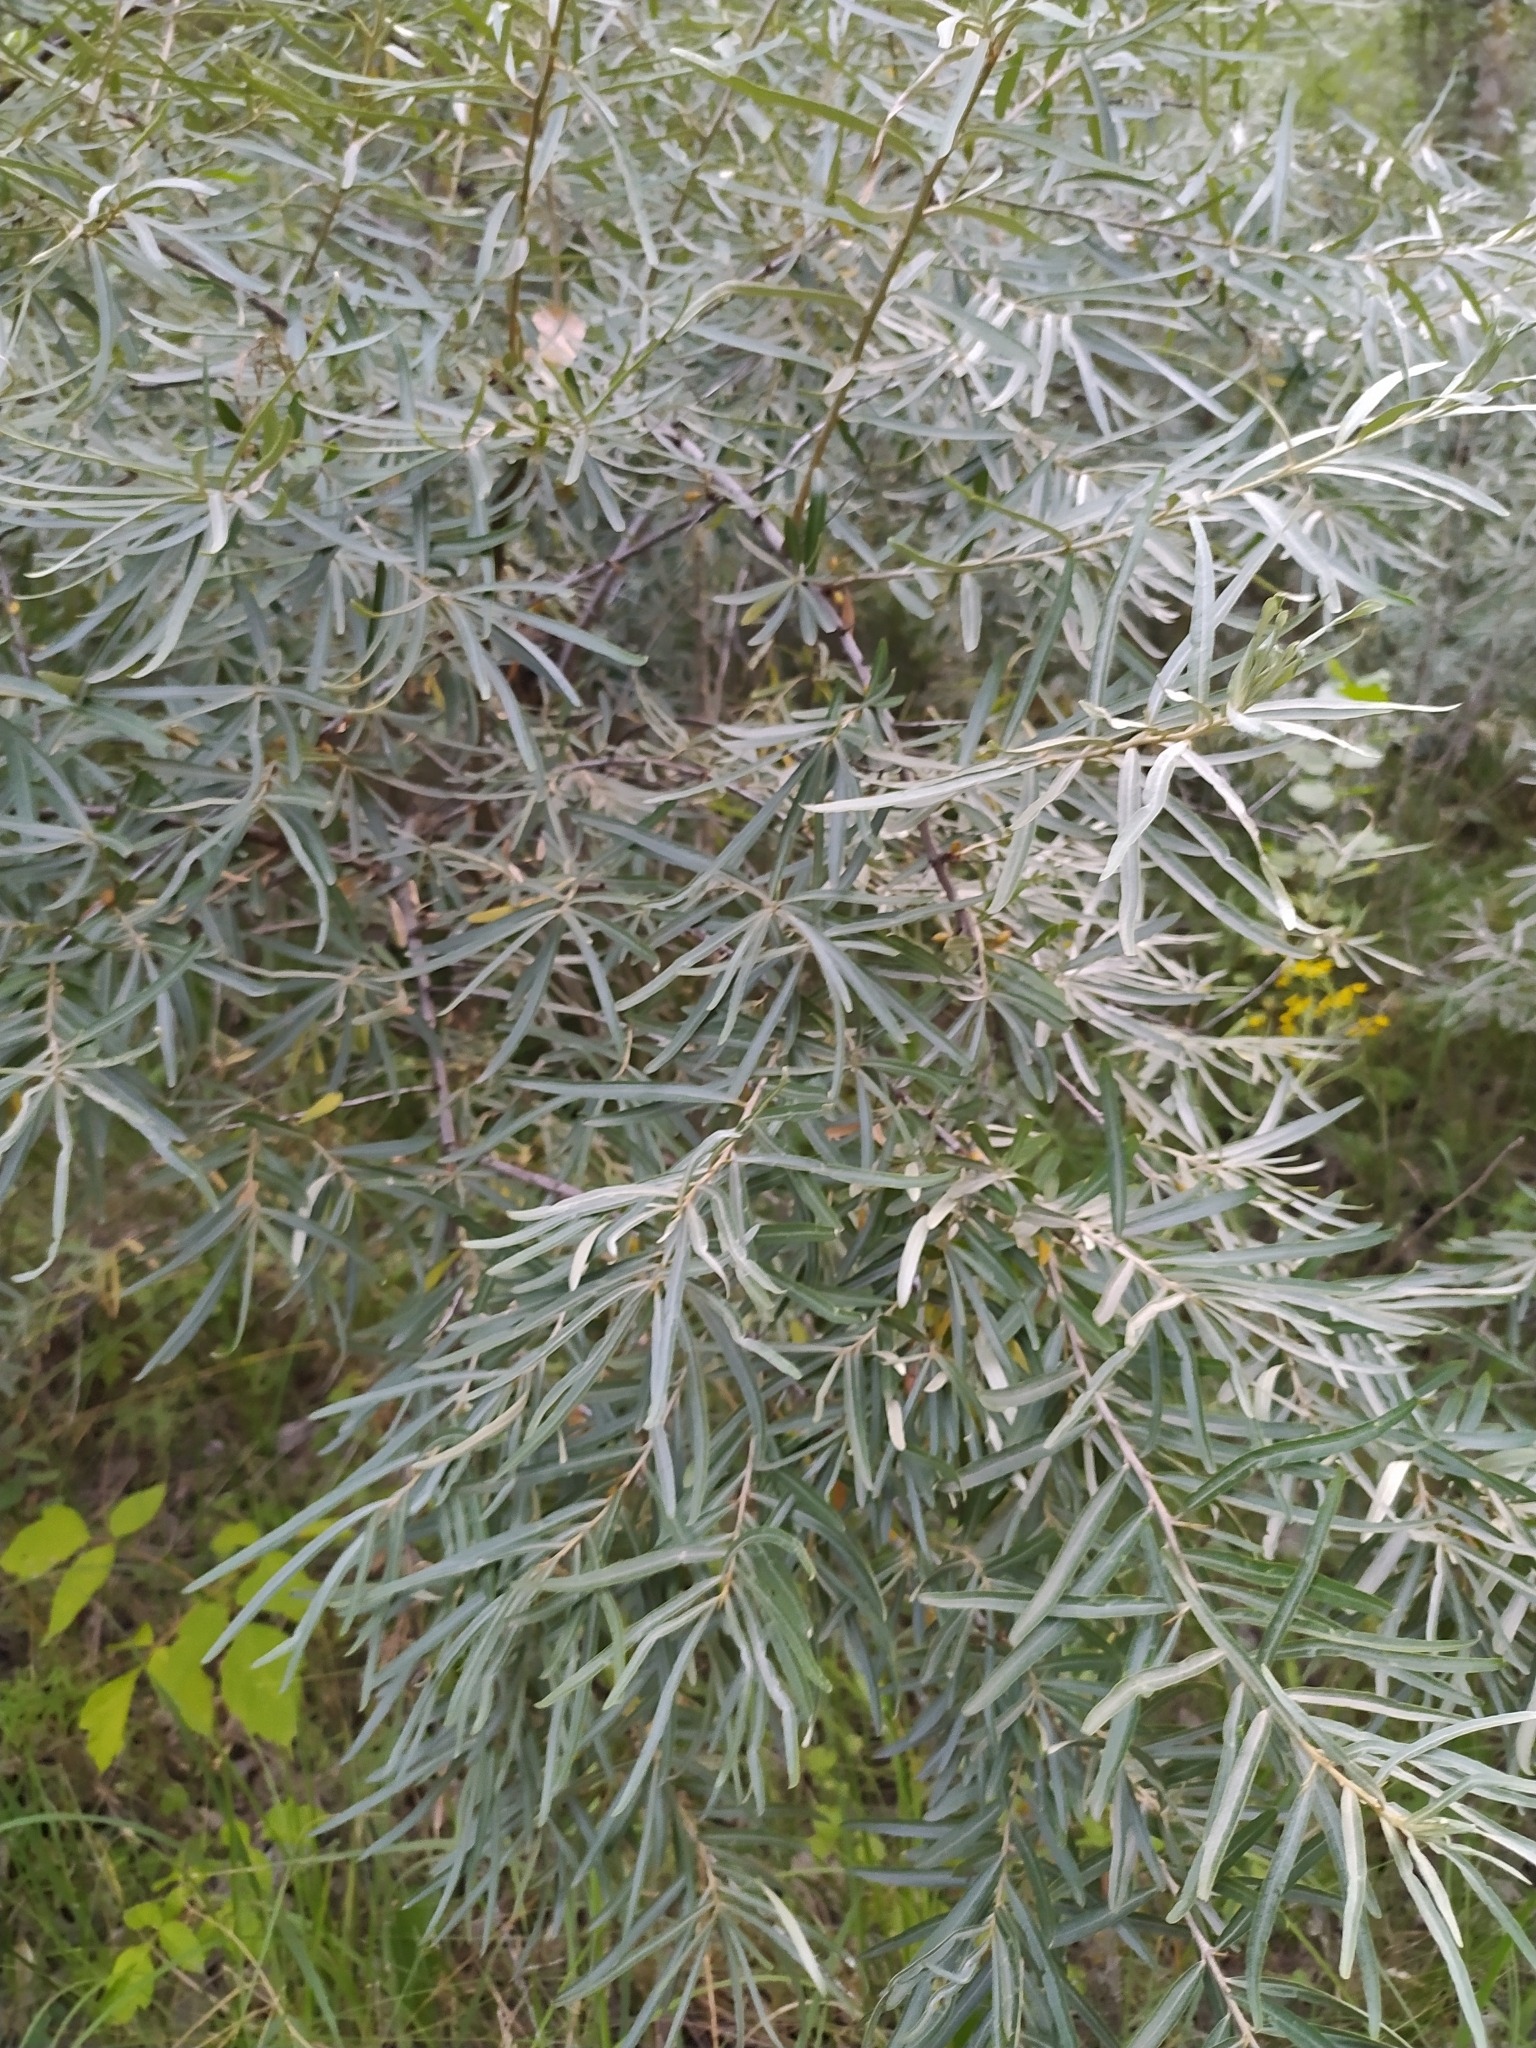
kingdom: Plantae
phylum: Tracheophyta
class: Magnoliopsida
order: Rosales
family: Elaeagnaceae
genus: Hippophae
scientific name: Hippophae rhamnoides
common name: Sea-buckthorn
